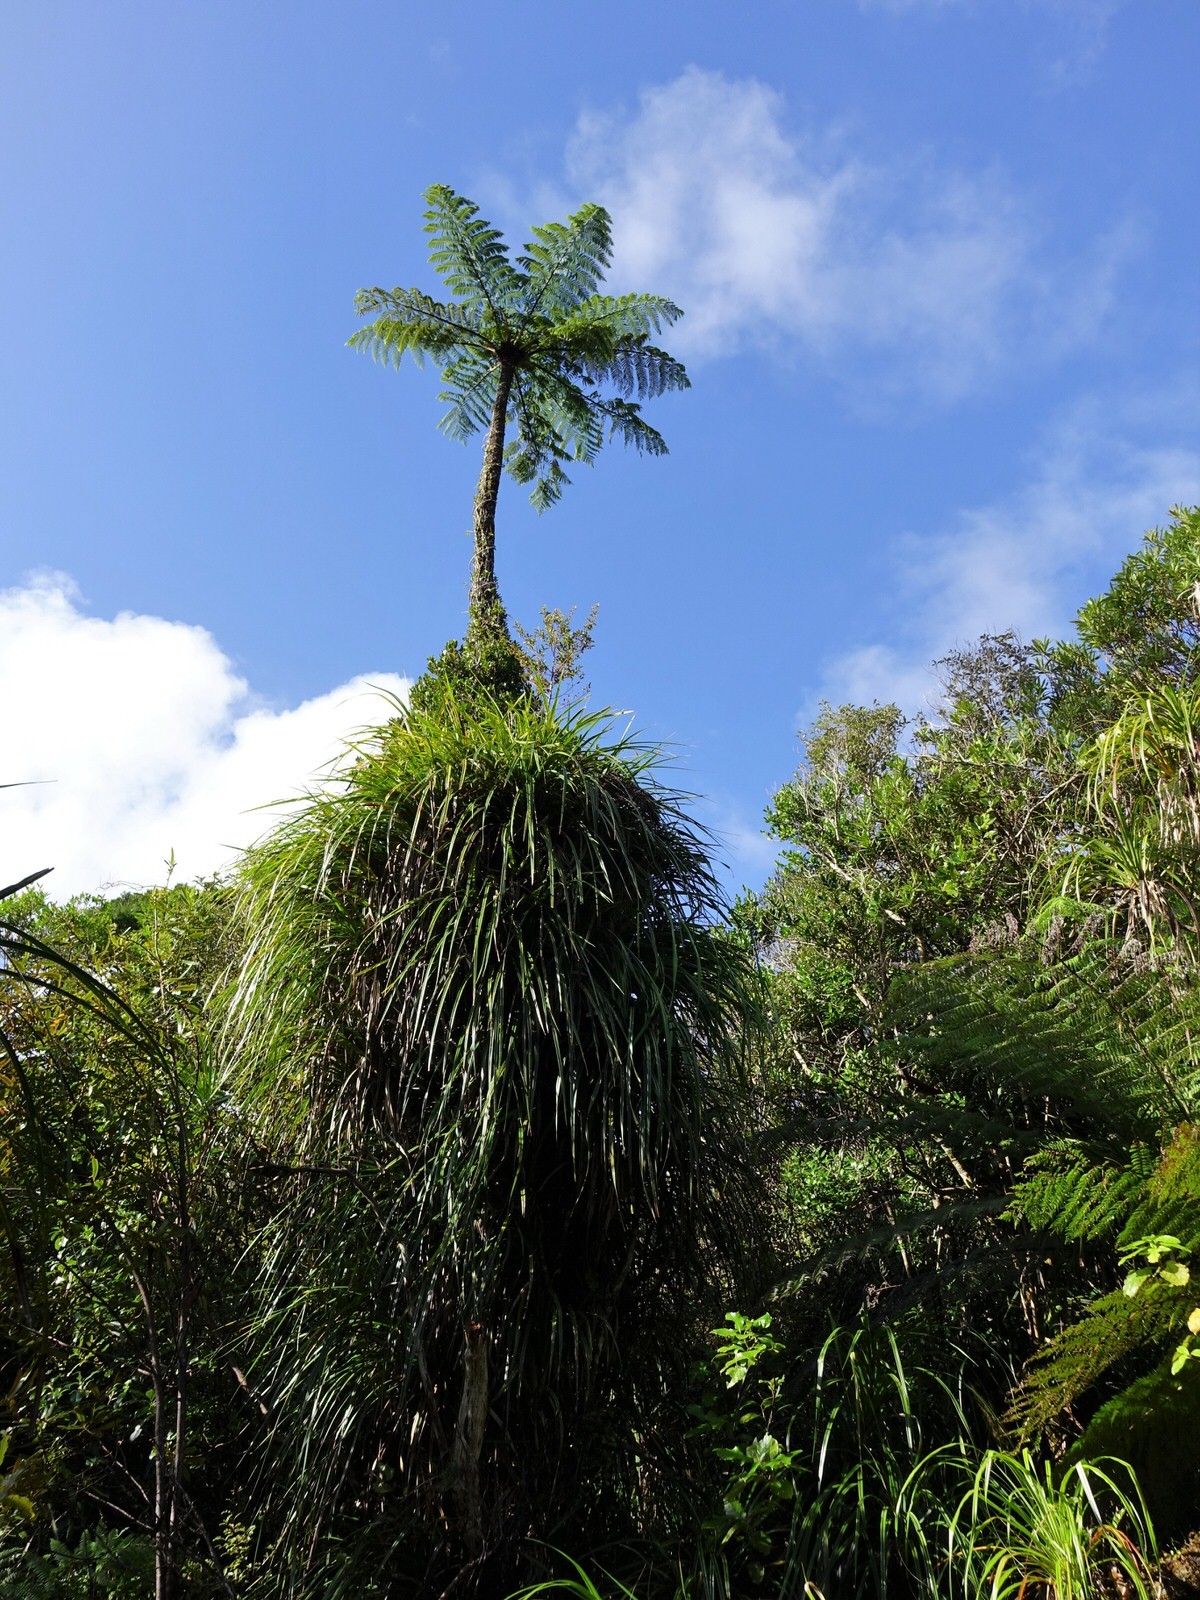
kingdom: Plantae
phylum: Tracheophyta
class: Liliopsida
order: Pandanales
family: Pandanaceae
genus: Freycinetia
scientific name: Freycinetia banksii
